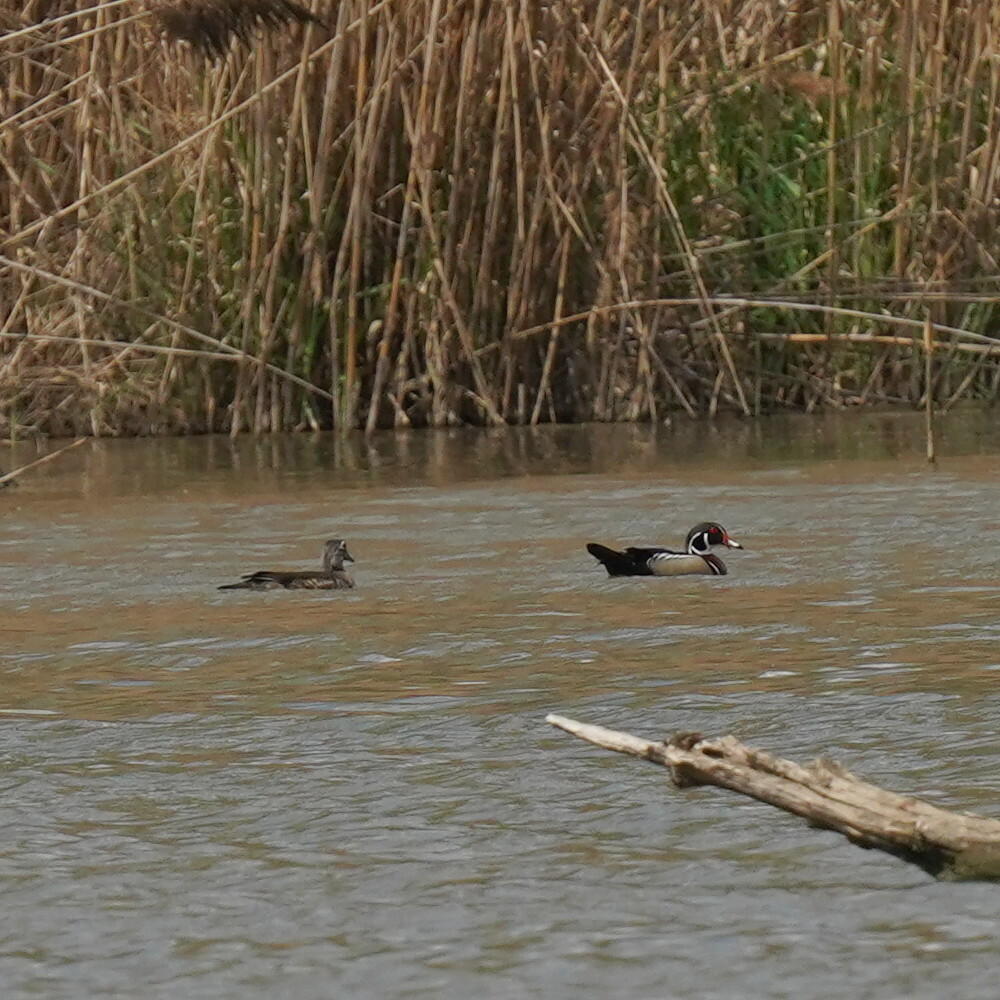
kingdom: Animalia
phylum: Chordata
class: Aves
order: Anseriformes
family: Anatidae
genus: Aix
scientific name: Aix sponsa
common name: Wood duck
